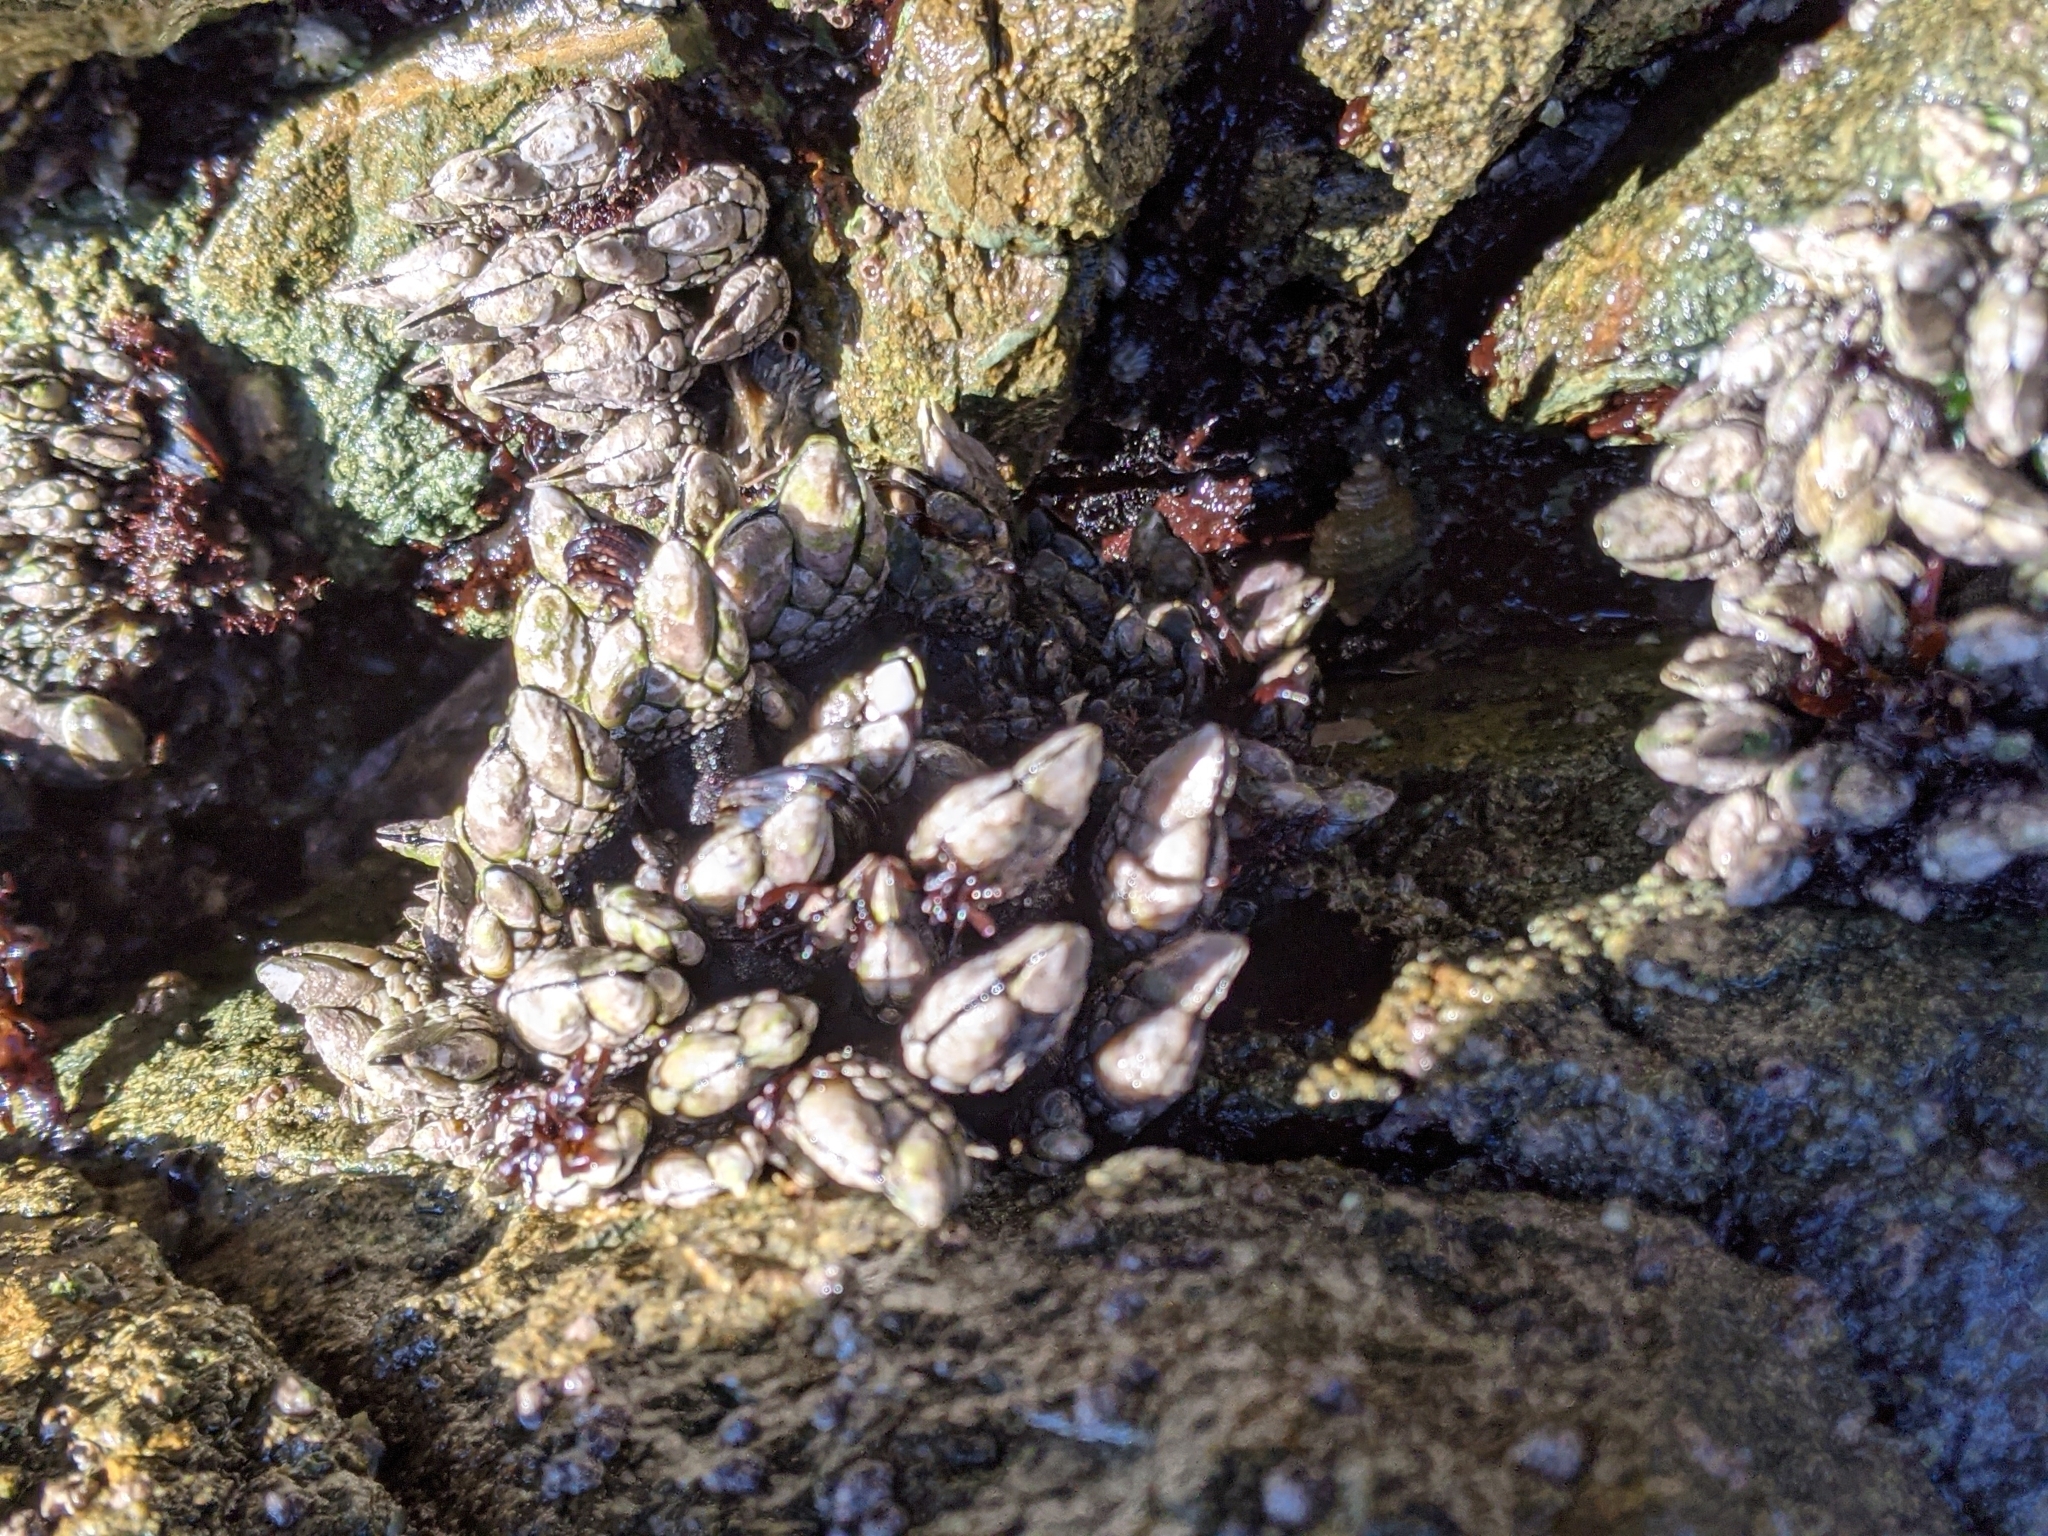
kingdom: Animalia
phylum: Arthropoda
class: Maxillopoda
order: Pedunculata
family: Pollicipedidae
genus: Pollicipes
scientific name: Pollicipes polymerus
